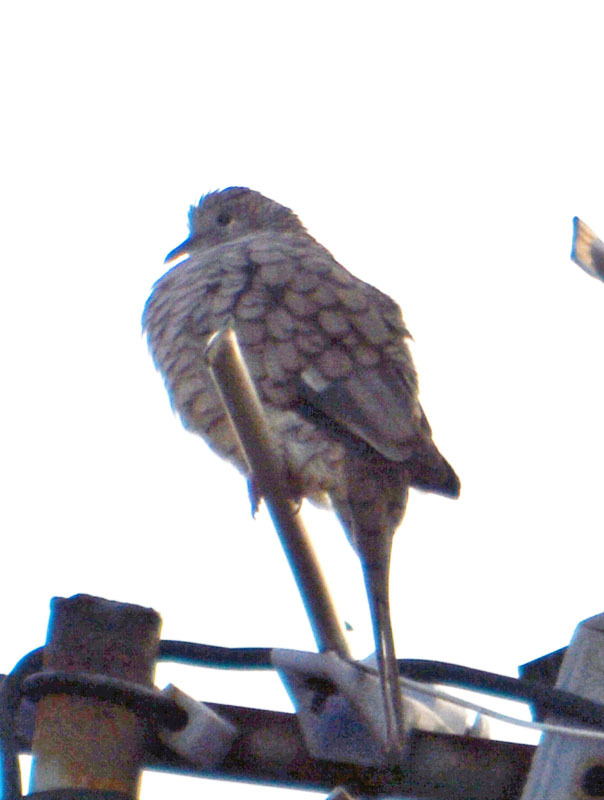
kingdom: Animalia
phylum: Chordata
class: Aves
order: Columbiformes
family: Columbidae
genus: Columbina
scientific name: Columbina inca
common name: Inca dove
